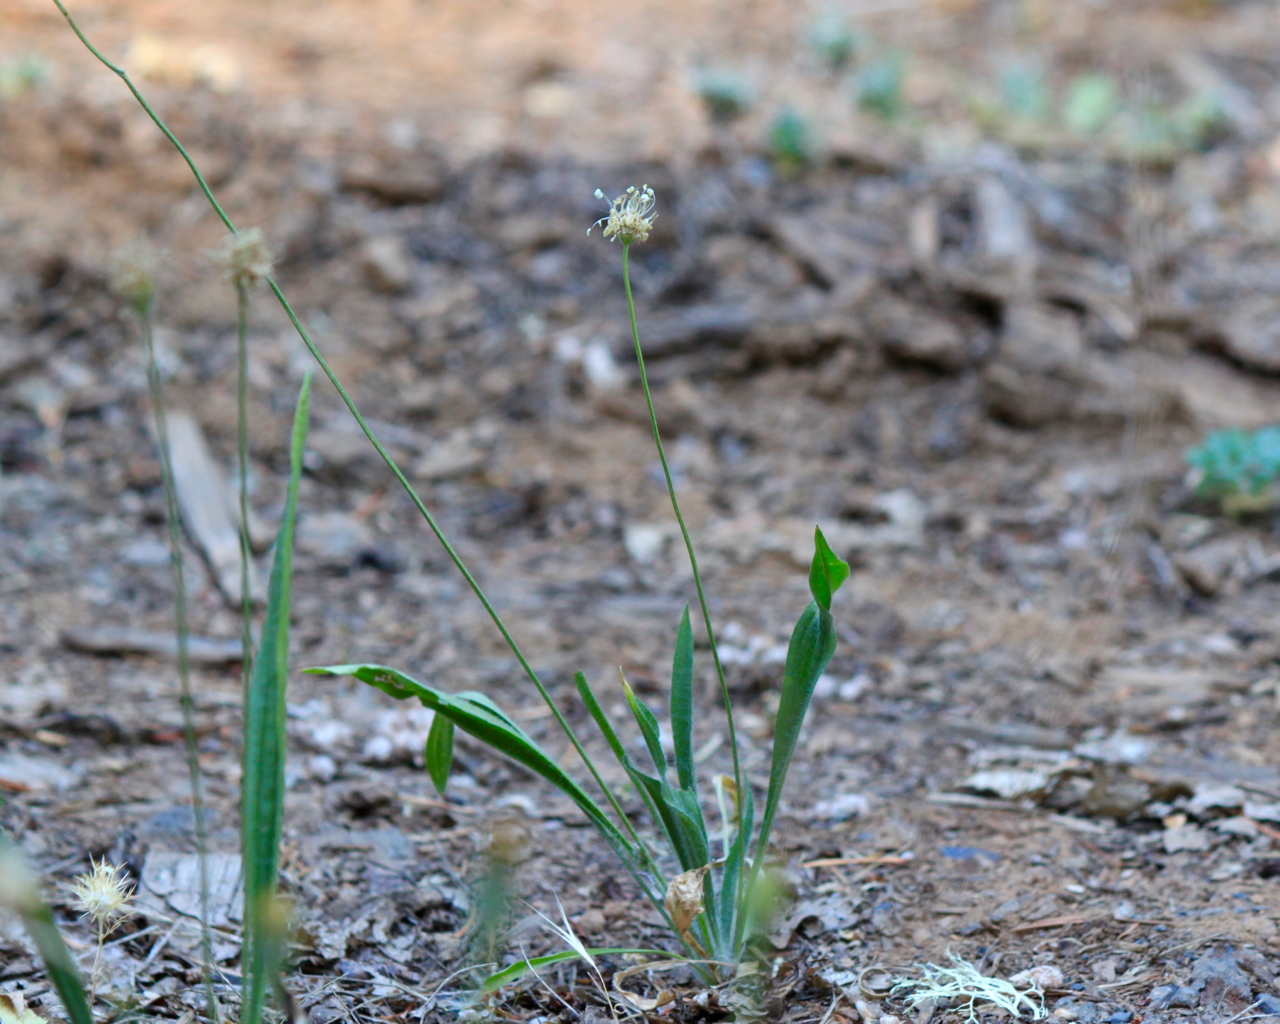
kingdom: Plantae
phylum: Tracheophyta
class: Magnoliopsida
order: Lamiales
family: Plantaginaceae
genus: Plantago
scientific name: Plantago lanceolata
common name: Ribwort plantain
